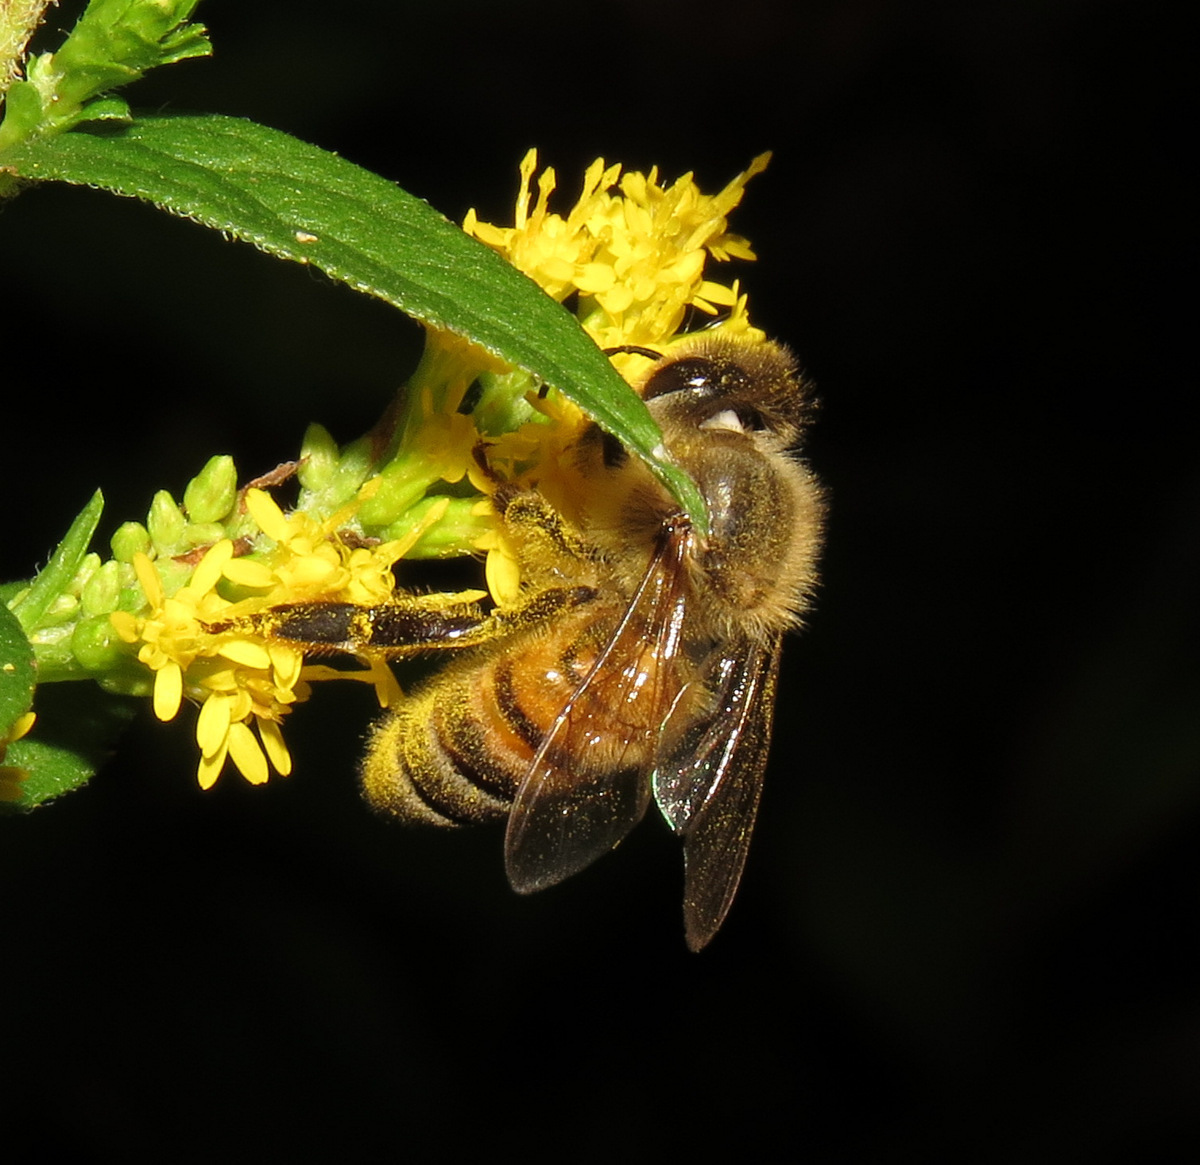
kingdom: Animalia
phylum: Arthropoda
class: Insecta
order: Hymenoptera
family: Apidae
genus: Apis
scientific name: Apis mellifera
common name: Honey bee
